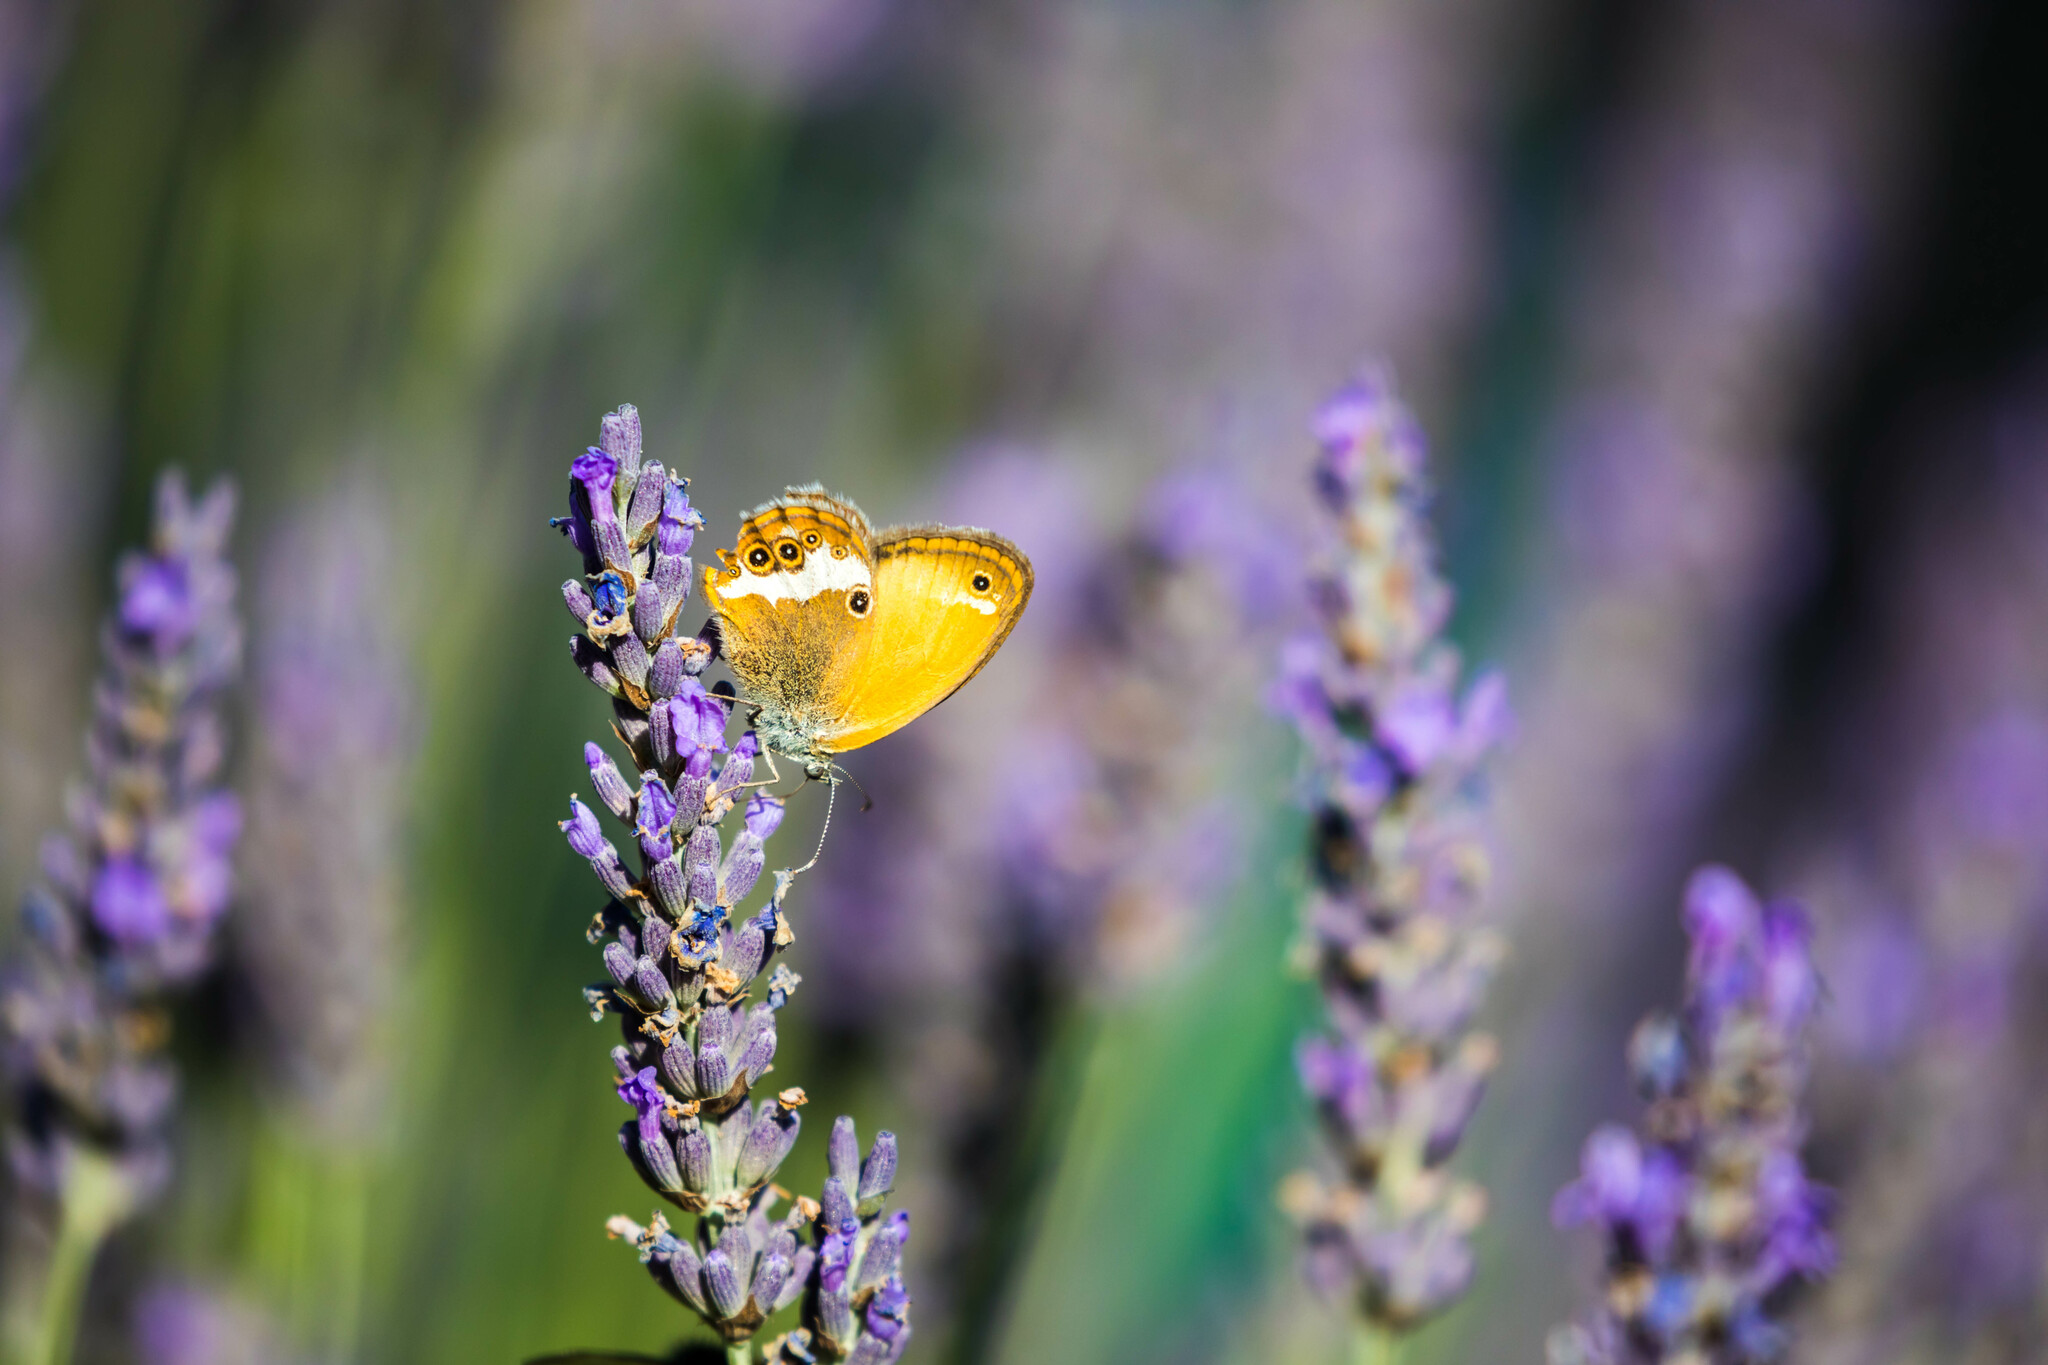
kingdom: Animalia
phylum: Arthropoda
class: Insecta
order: Lepidoptera
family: Nymphalidae
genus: Coenonympha
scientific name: Coenonympha arcania
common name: Pearly heath
